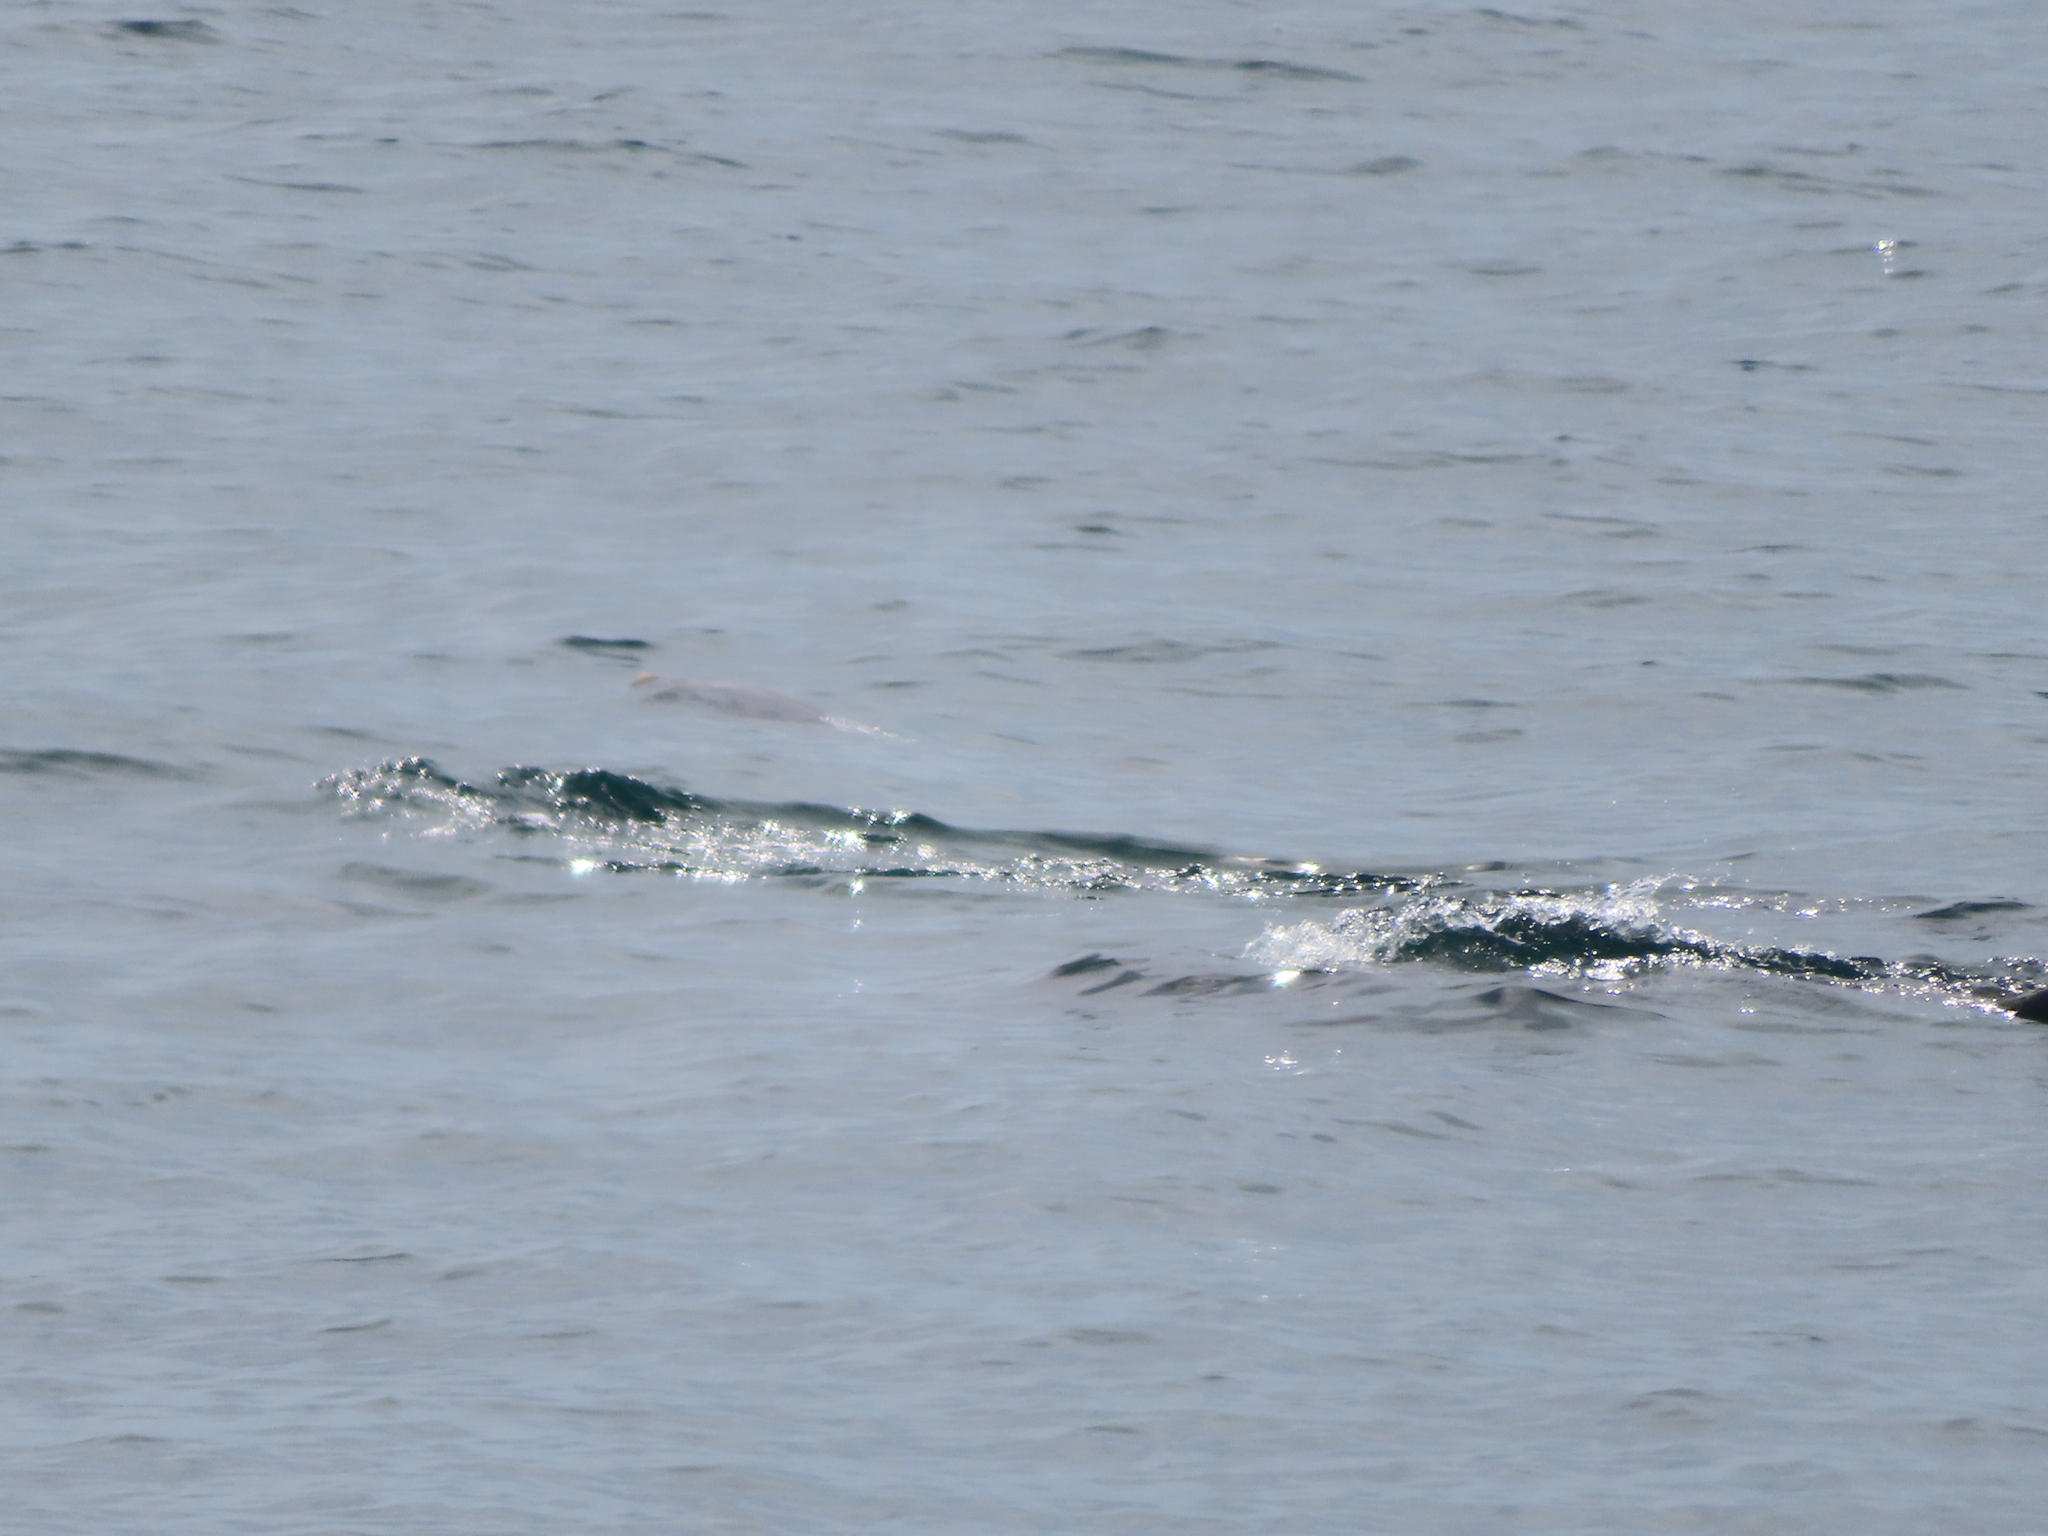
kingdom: Animalia
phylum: Chordata
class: Mammalia
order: Cetacea
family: Delphinidae
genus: Tursiops
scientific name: Tursiops truncatus
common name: Bottlenose dolphin
